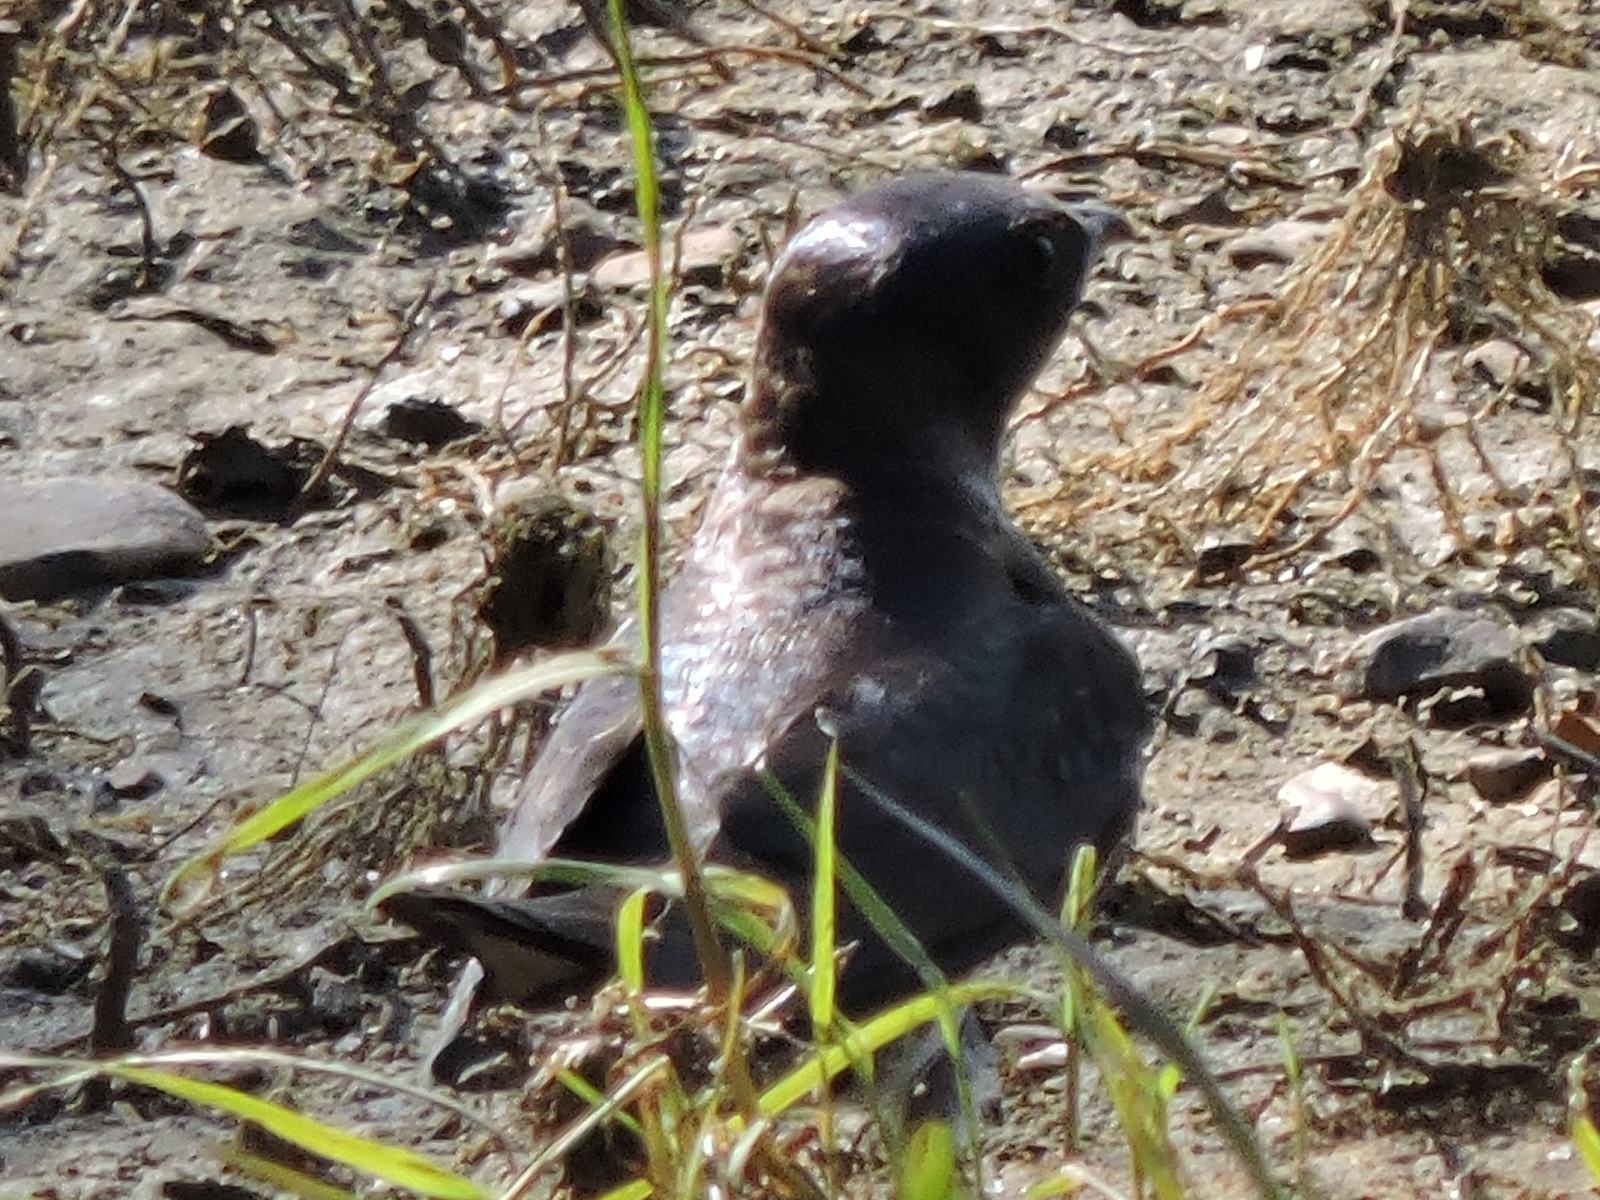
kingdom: Animalia
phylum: Chordata
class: Aves
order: Passeriformes
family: Hirundinidae
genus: Progne
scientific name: Progne subis
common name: Purple martin
